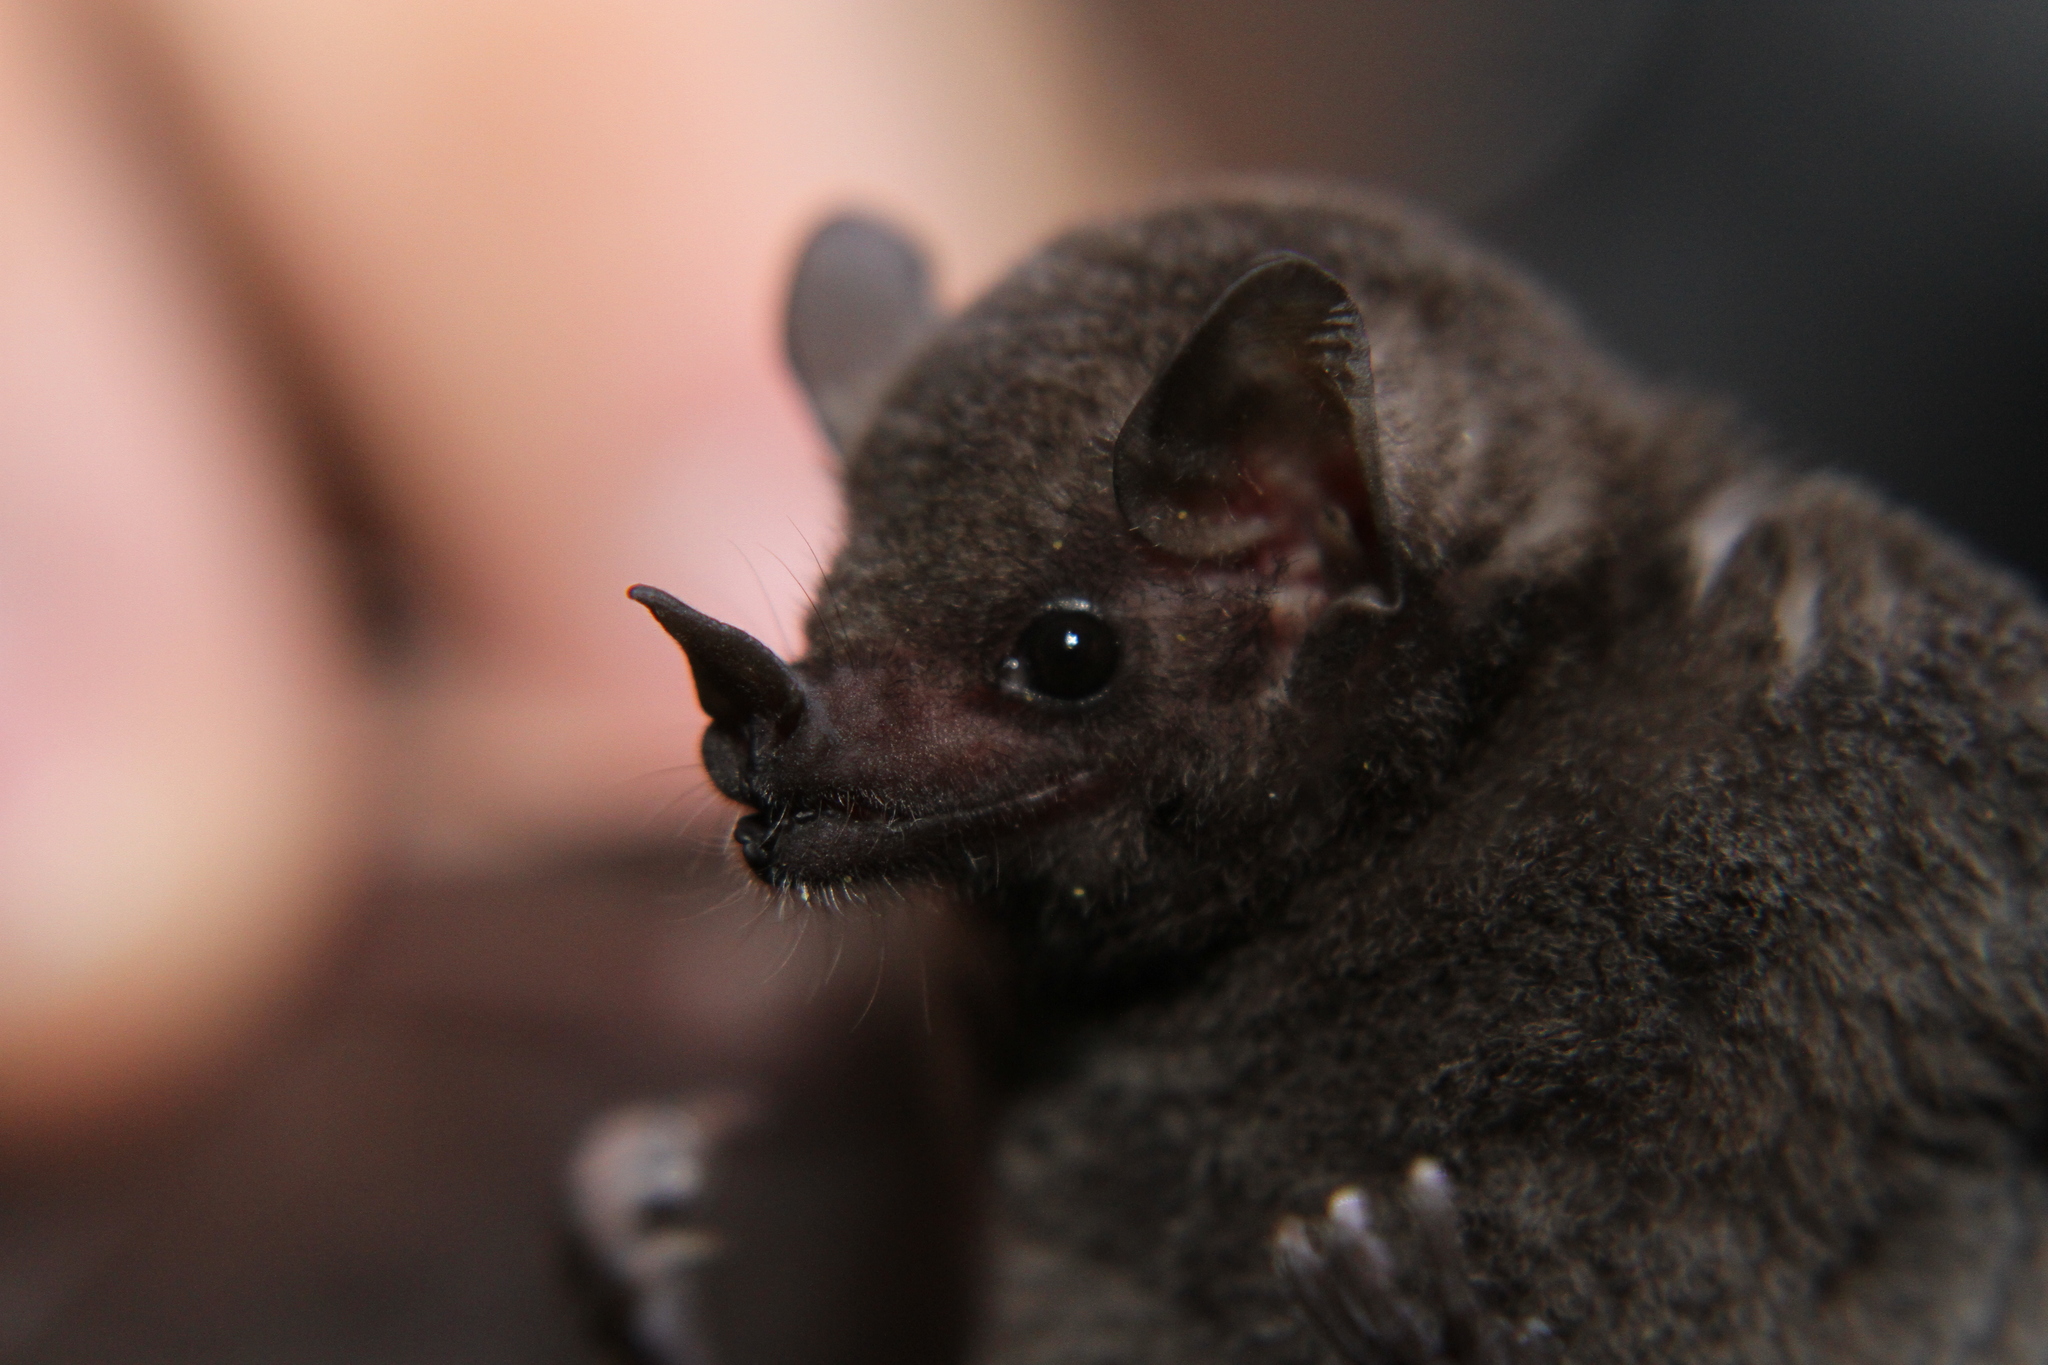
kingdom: Animalia
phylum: Chordata
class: Mammalia
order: Chiroptera
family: Phyllostomidae
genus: Glossophaga
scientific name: Glossophaga commissarisi
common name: Commissaris's long-tongued bat
